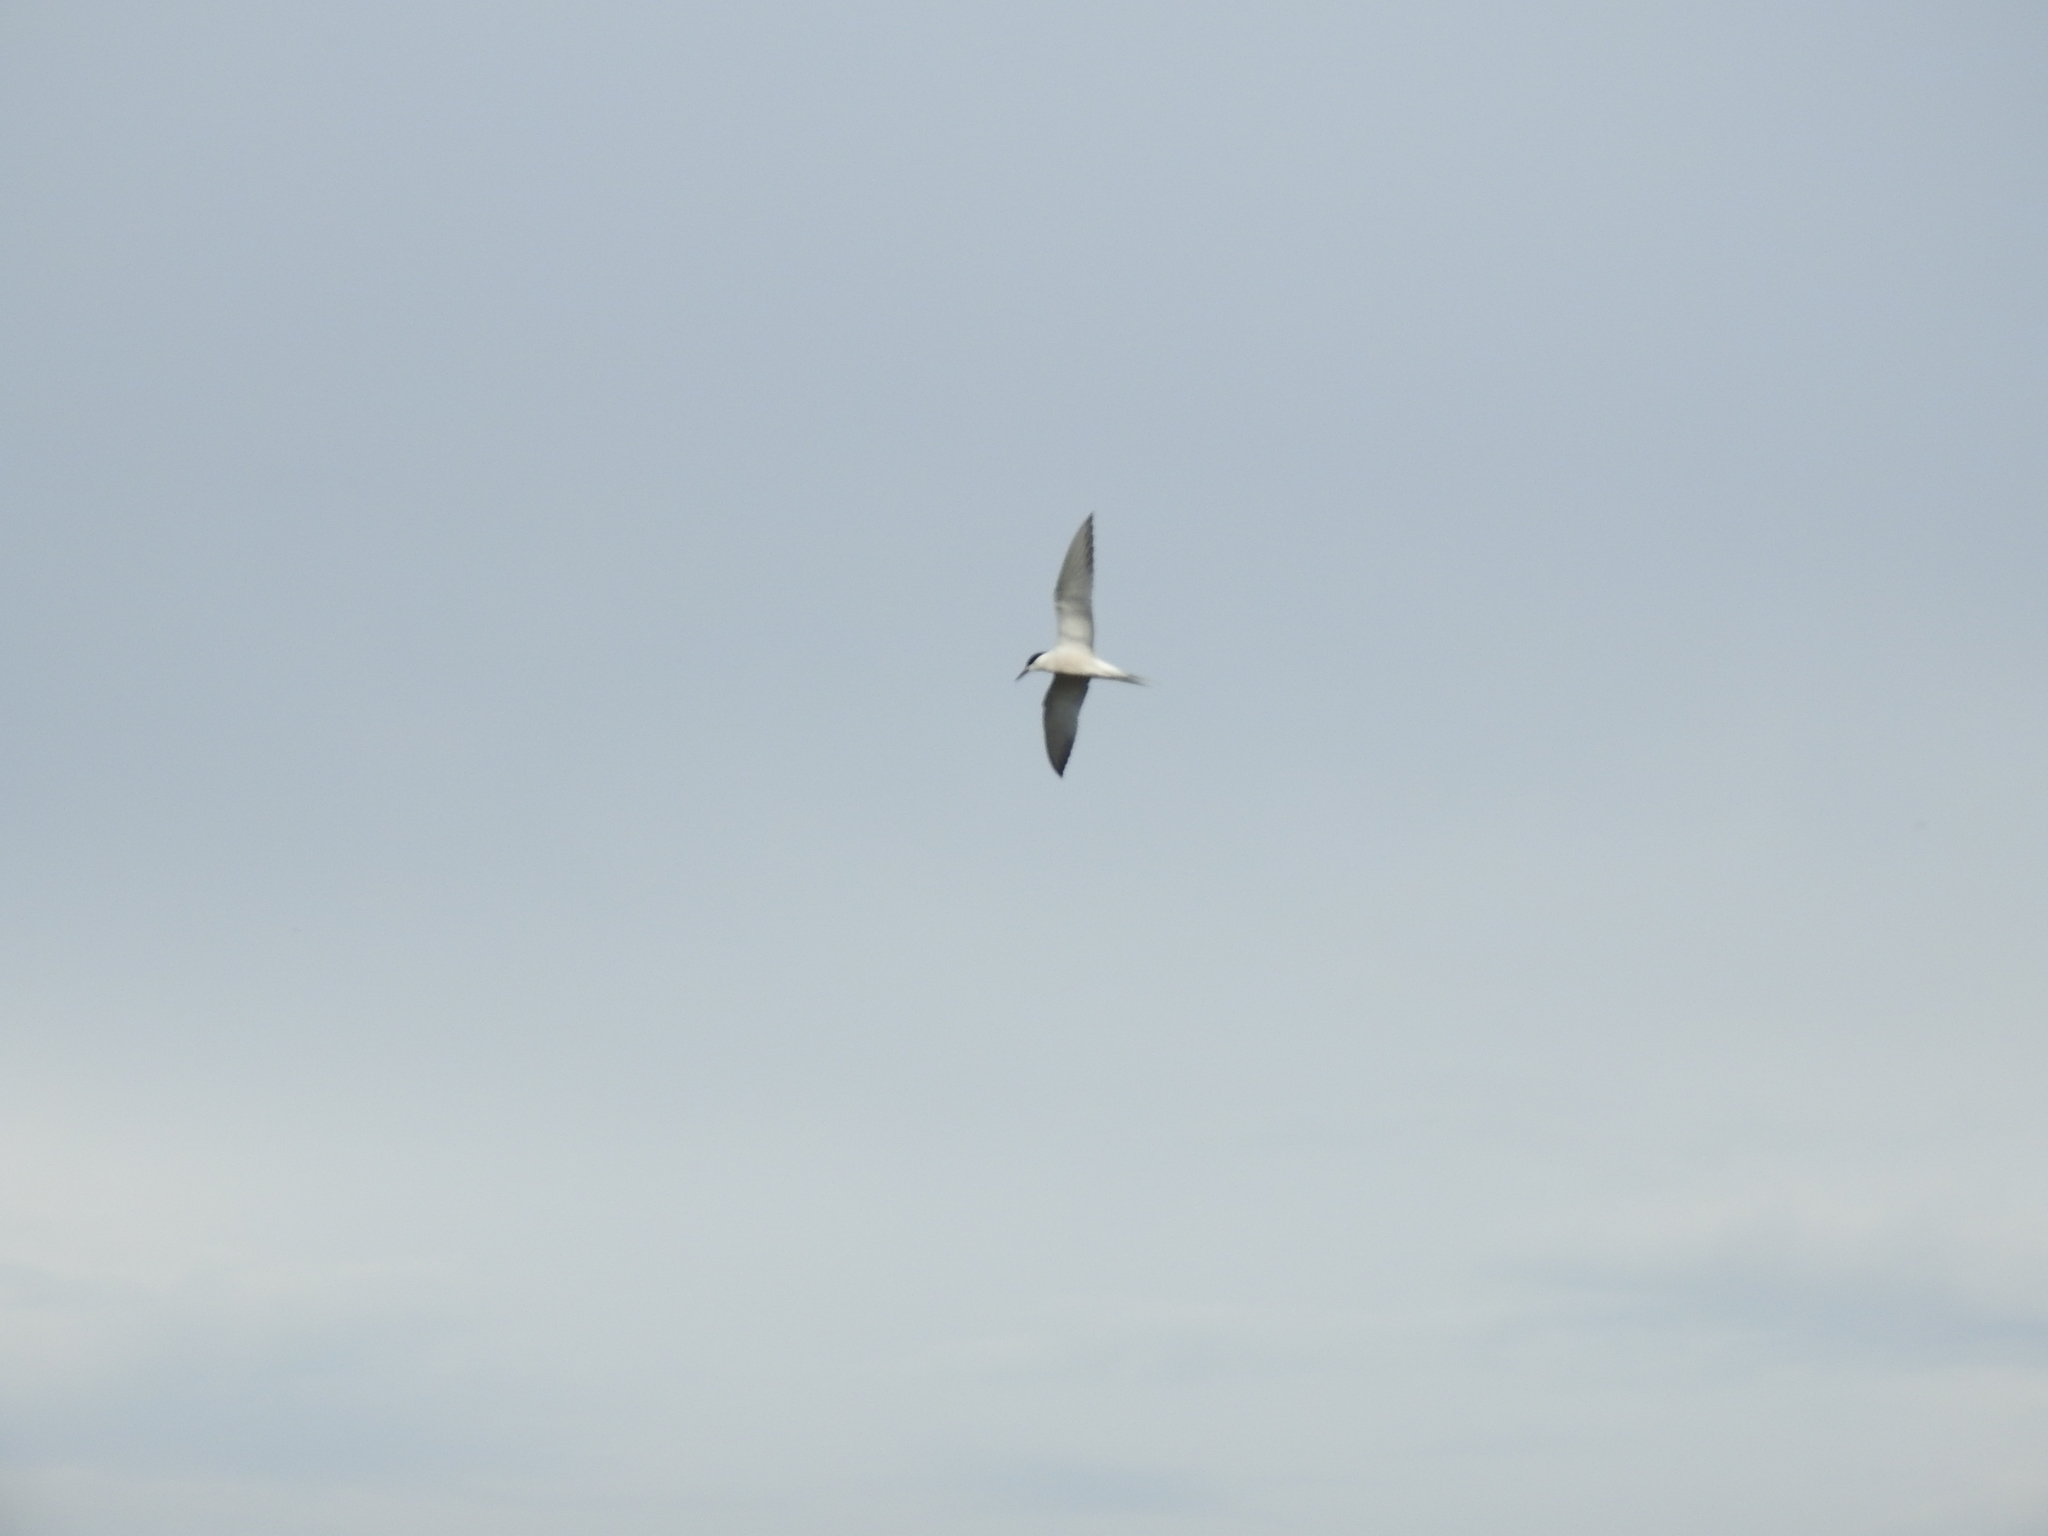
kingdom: Animalia
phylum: Chordata
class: Aves
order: Charadriiformes
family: Laridae
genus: Sterna
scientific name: Sterna hirundo
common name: Common tern
